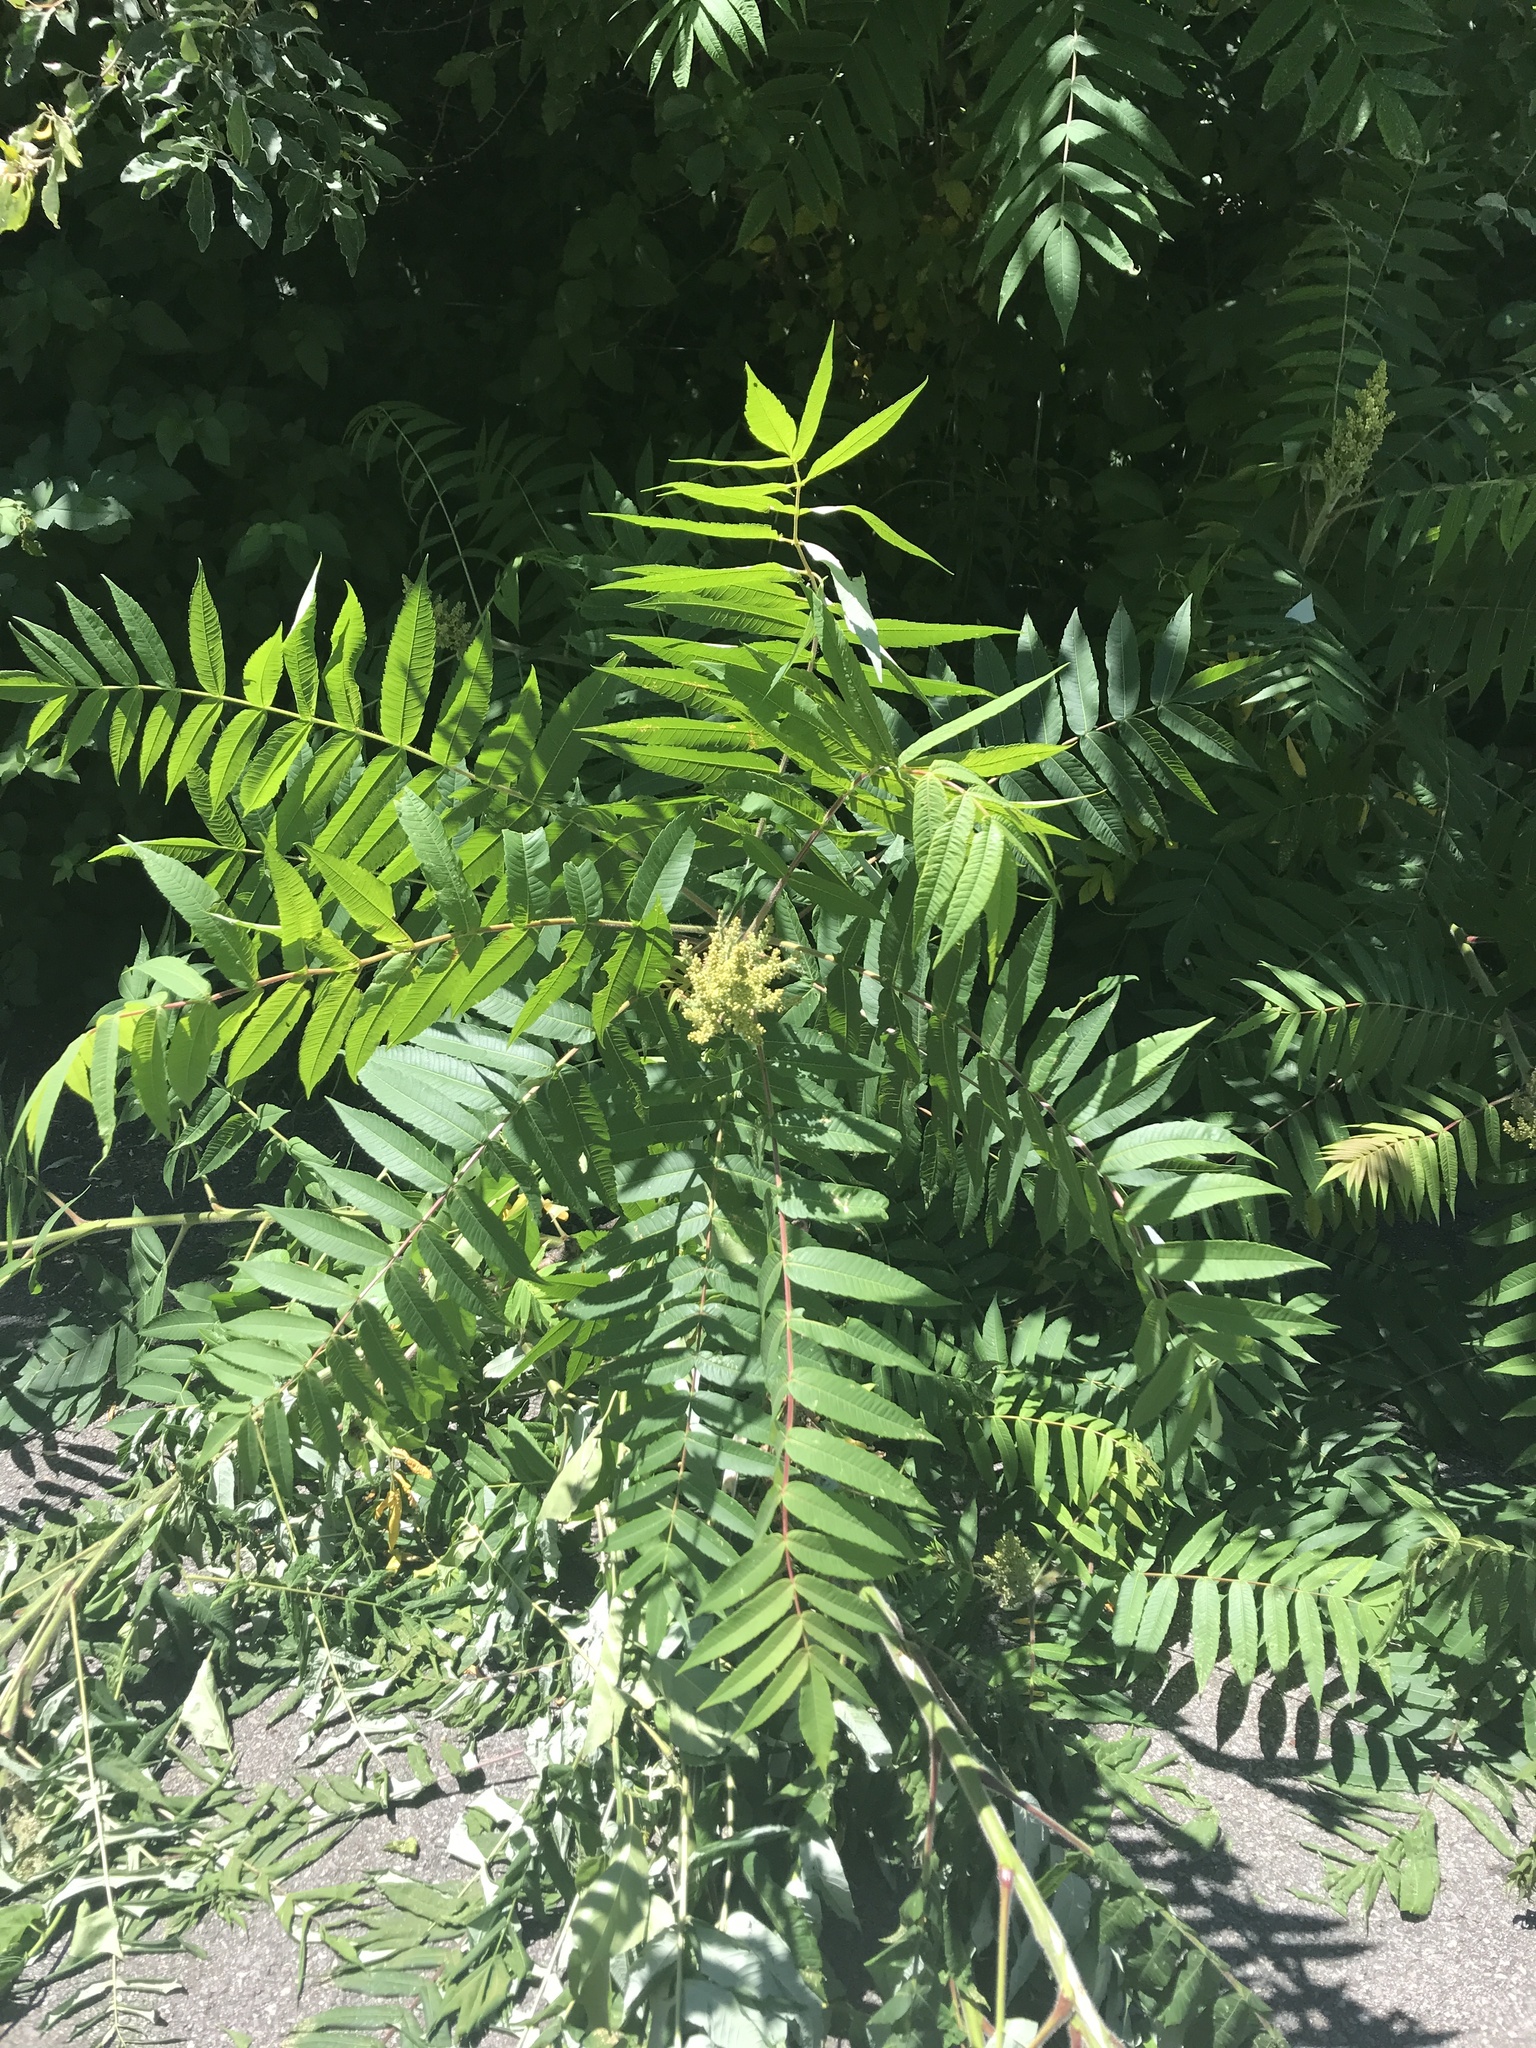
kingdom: Plantae
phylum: Tracheophyta
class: Magnoliopsida
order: Sapindales
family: Anacardiaceae
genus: Rhus
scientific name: Rhus typhina
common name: Staghorn sumac
